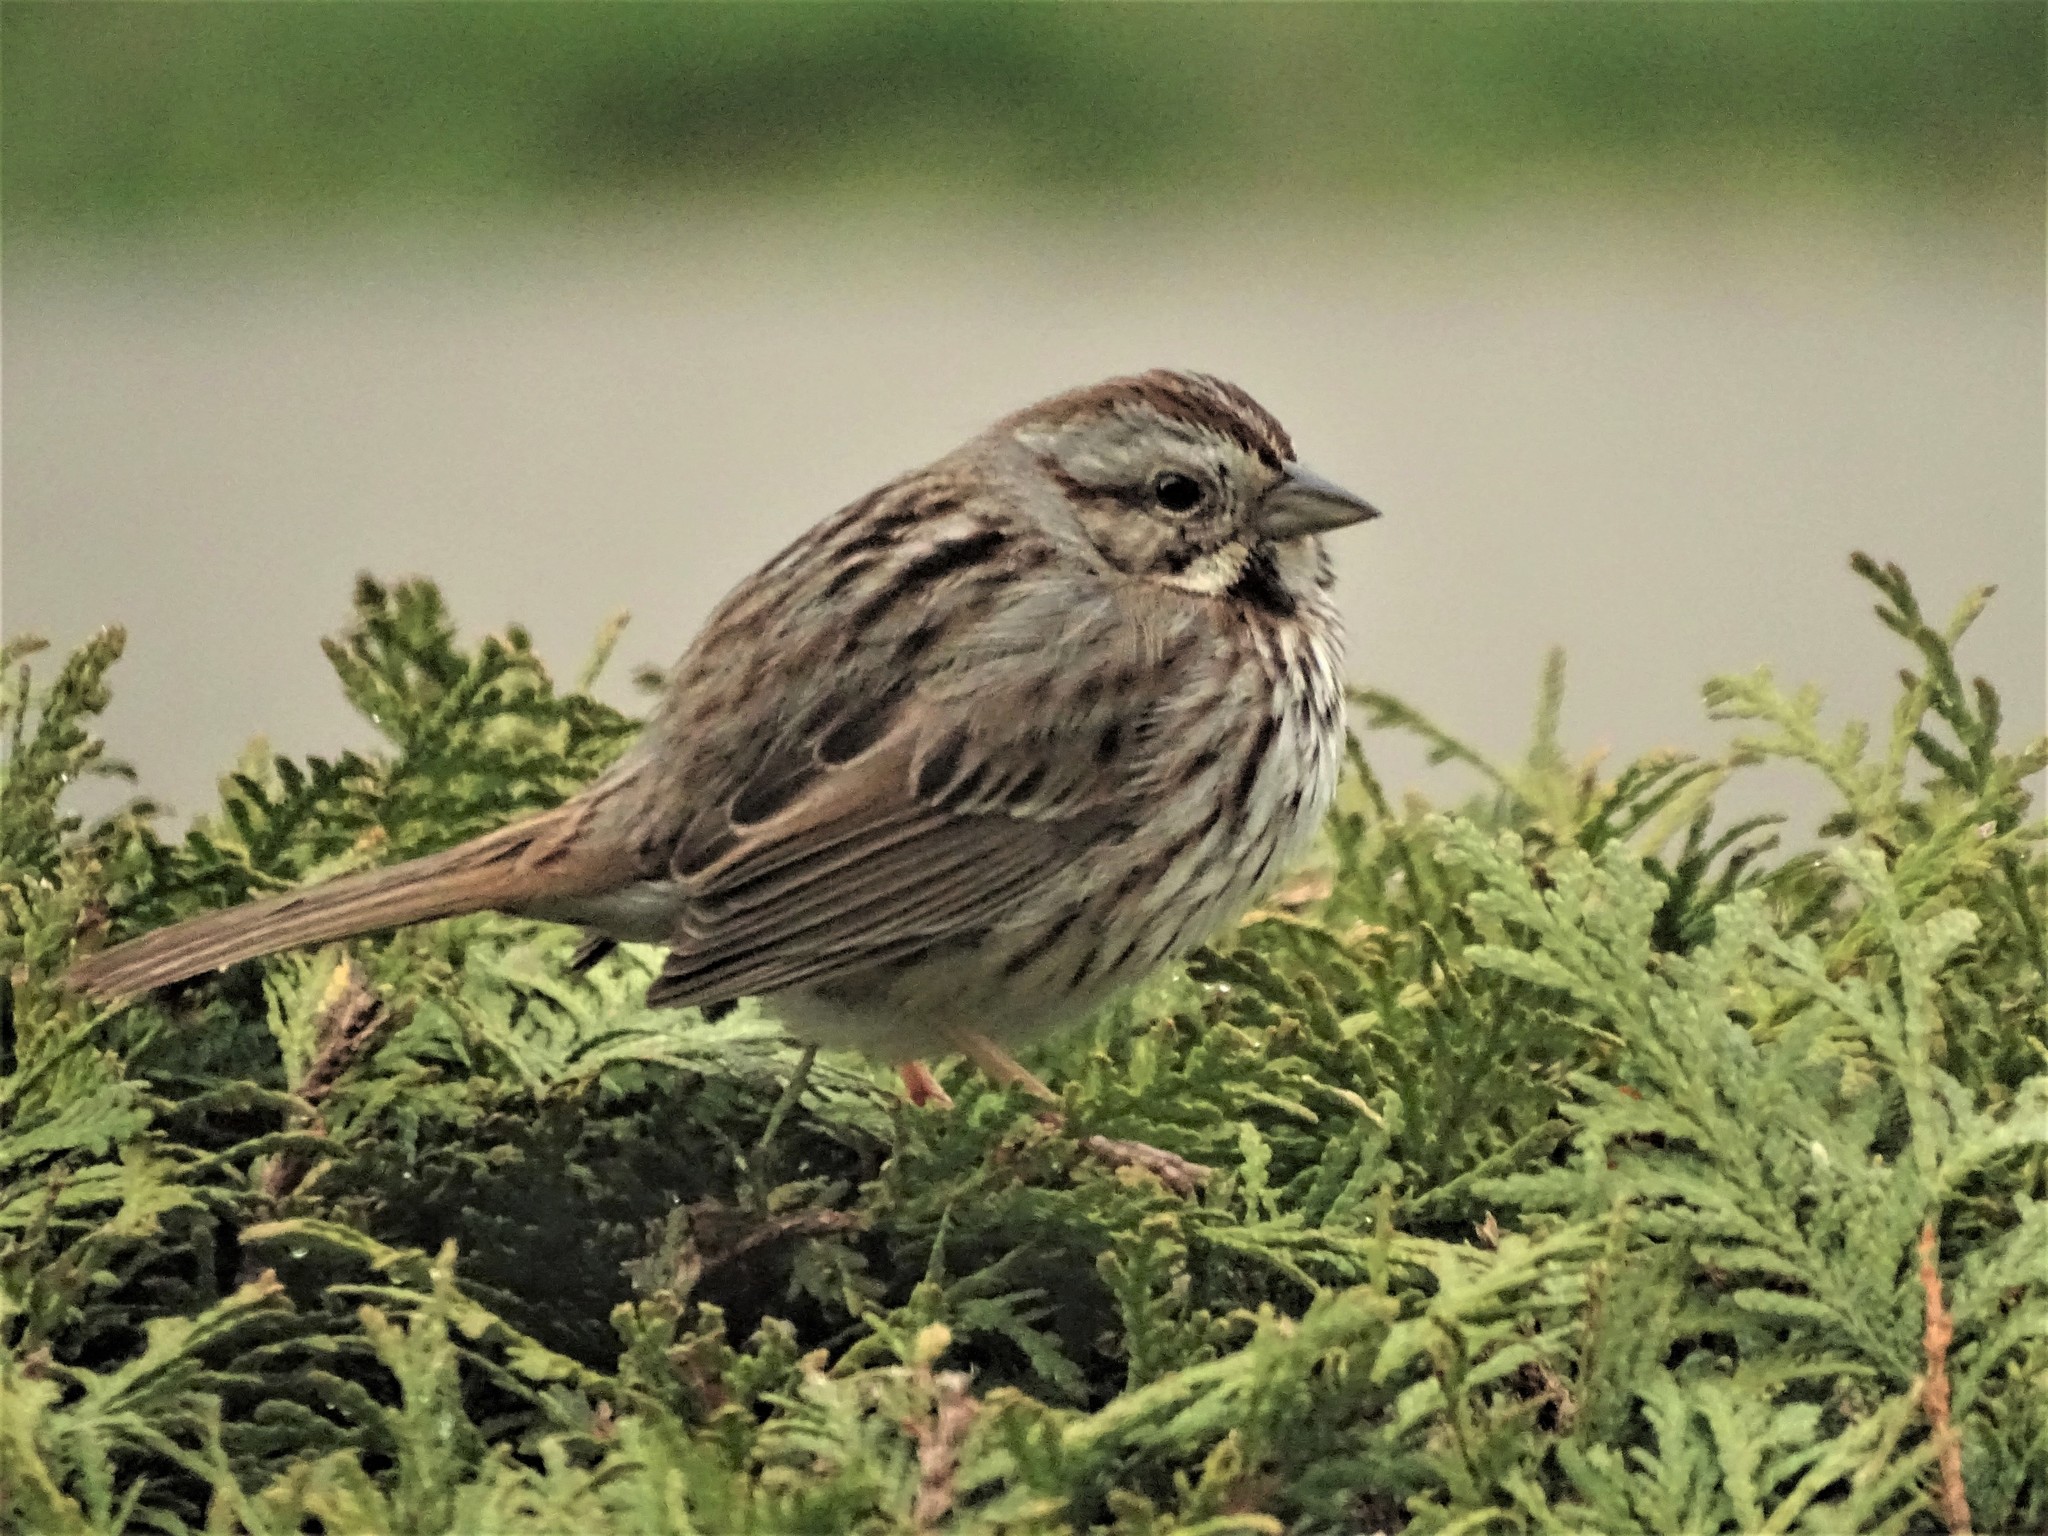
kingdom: Animalia
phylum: Chordata
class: Aves
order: Passeriformes
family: Passerellidae
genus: Melospiza
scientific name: Melospiza melodia
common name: Song sparrow
